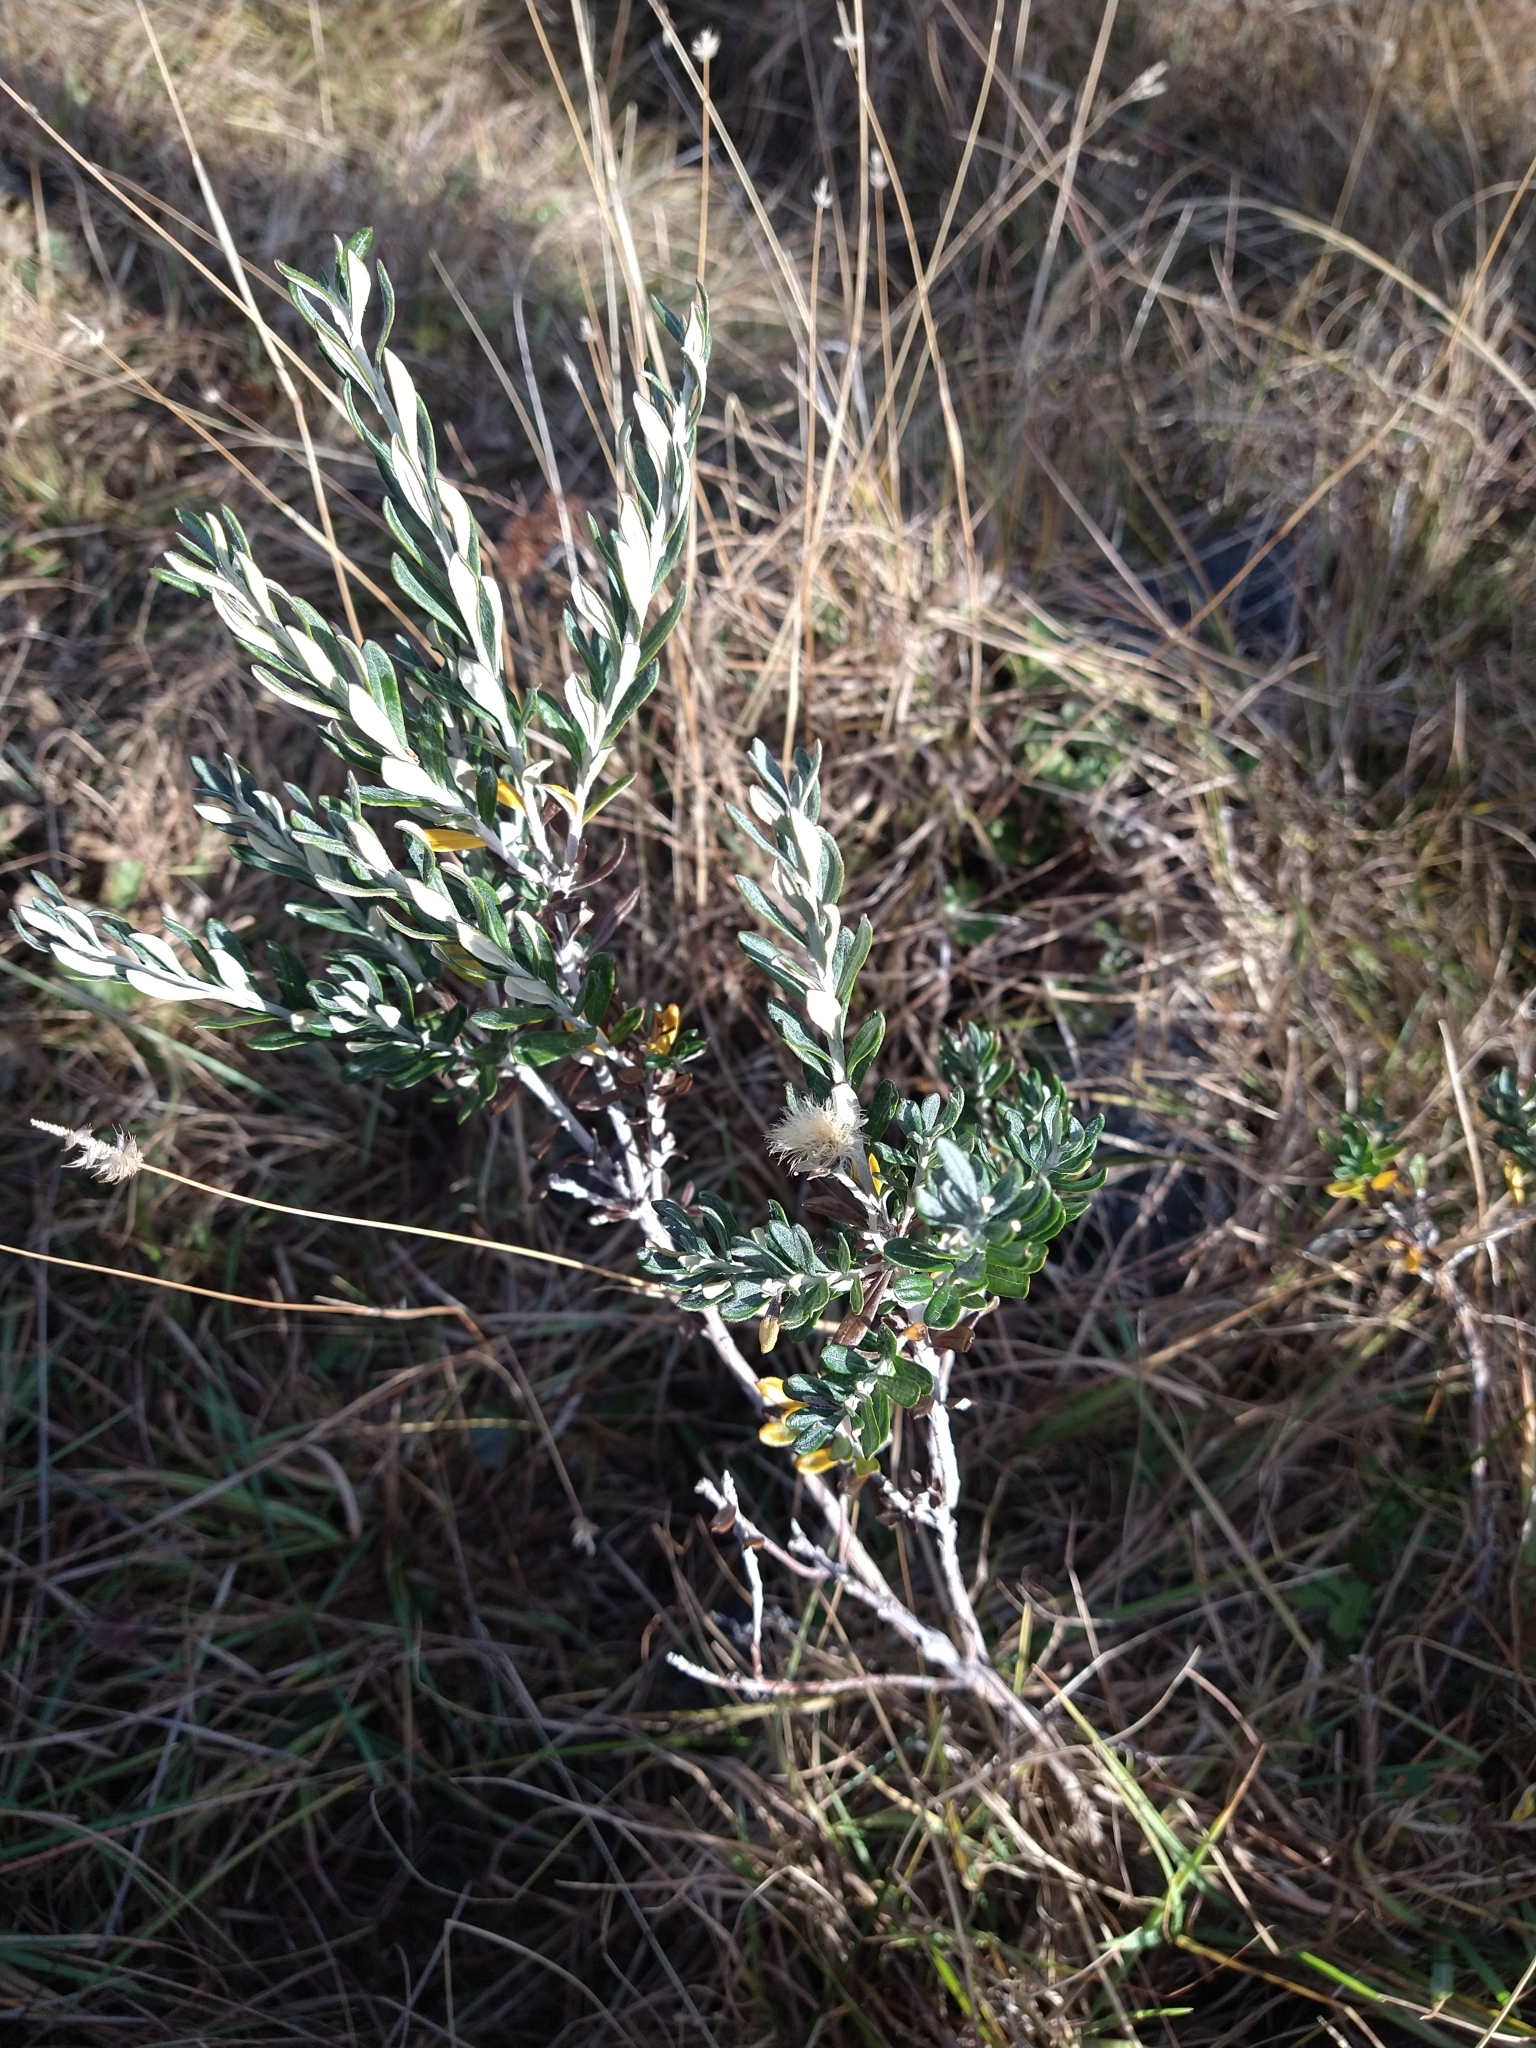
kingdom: Plantae
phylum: Tracheophyta
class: Magnoliopsida
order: Asterales
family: Asteraceae
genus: Chiliotrichum
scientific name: Chiliotrichum diffusum
